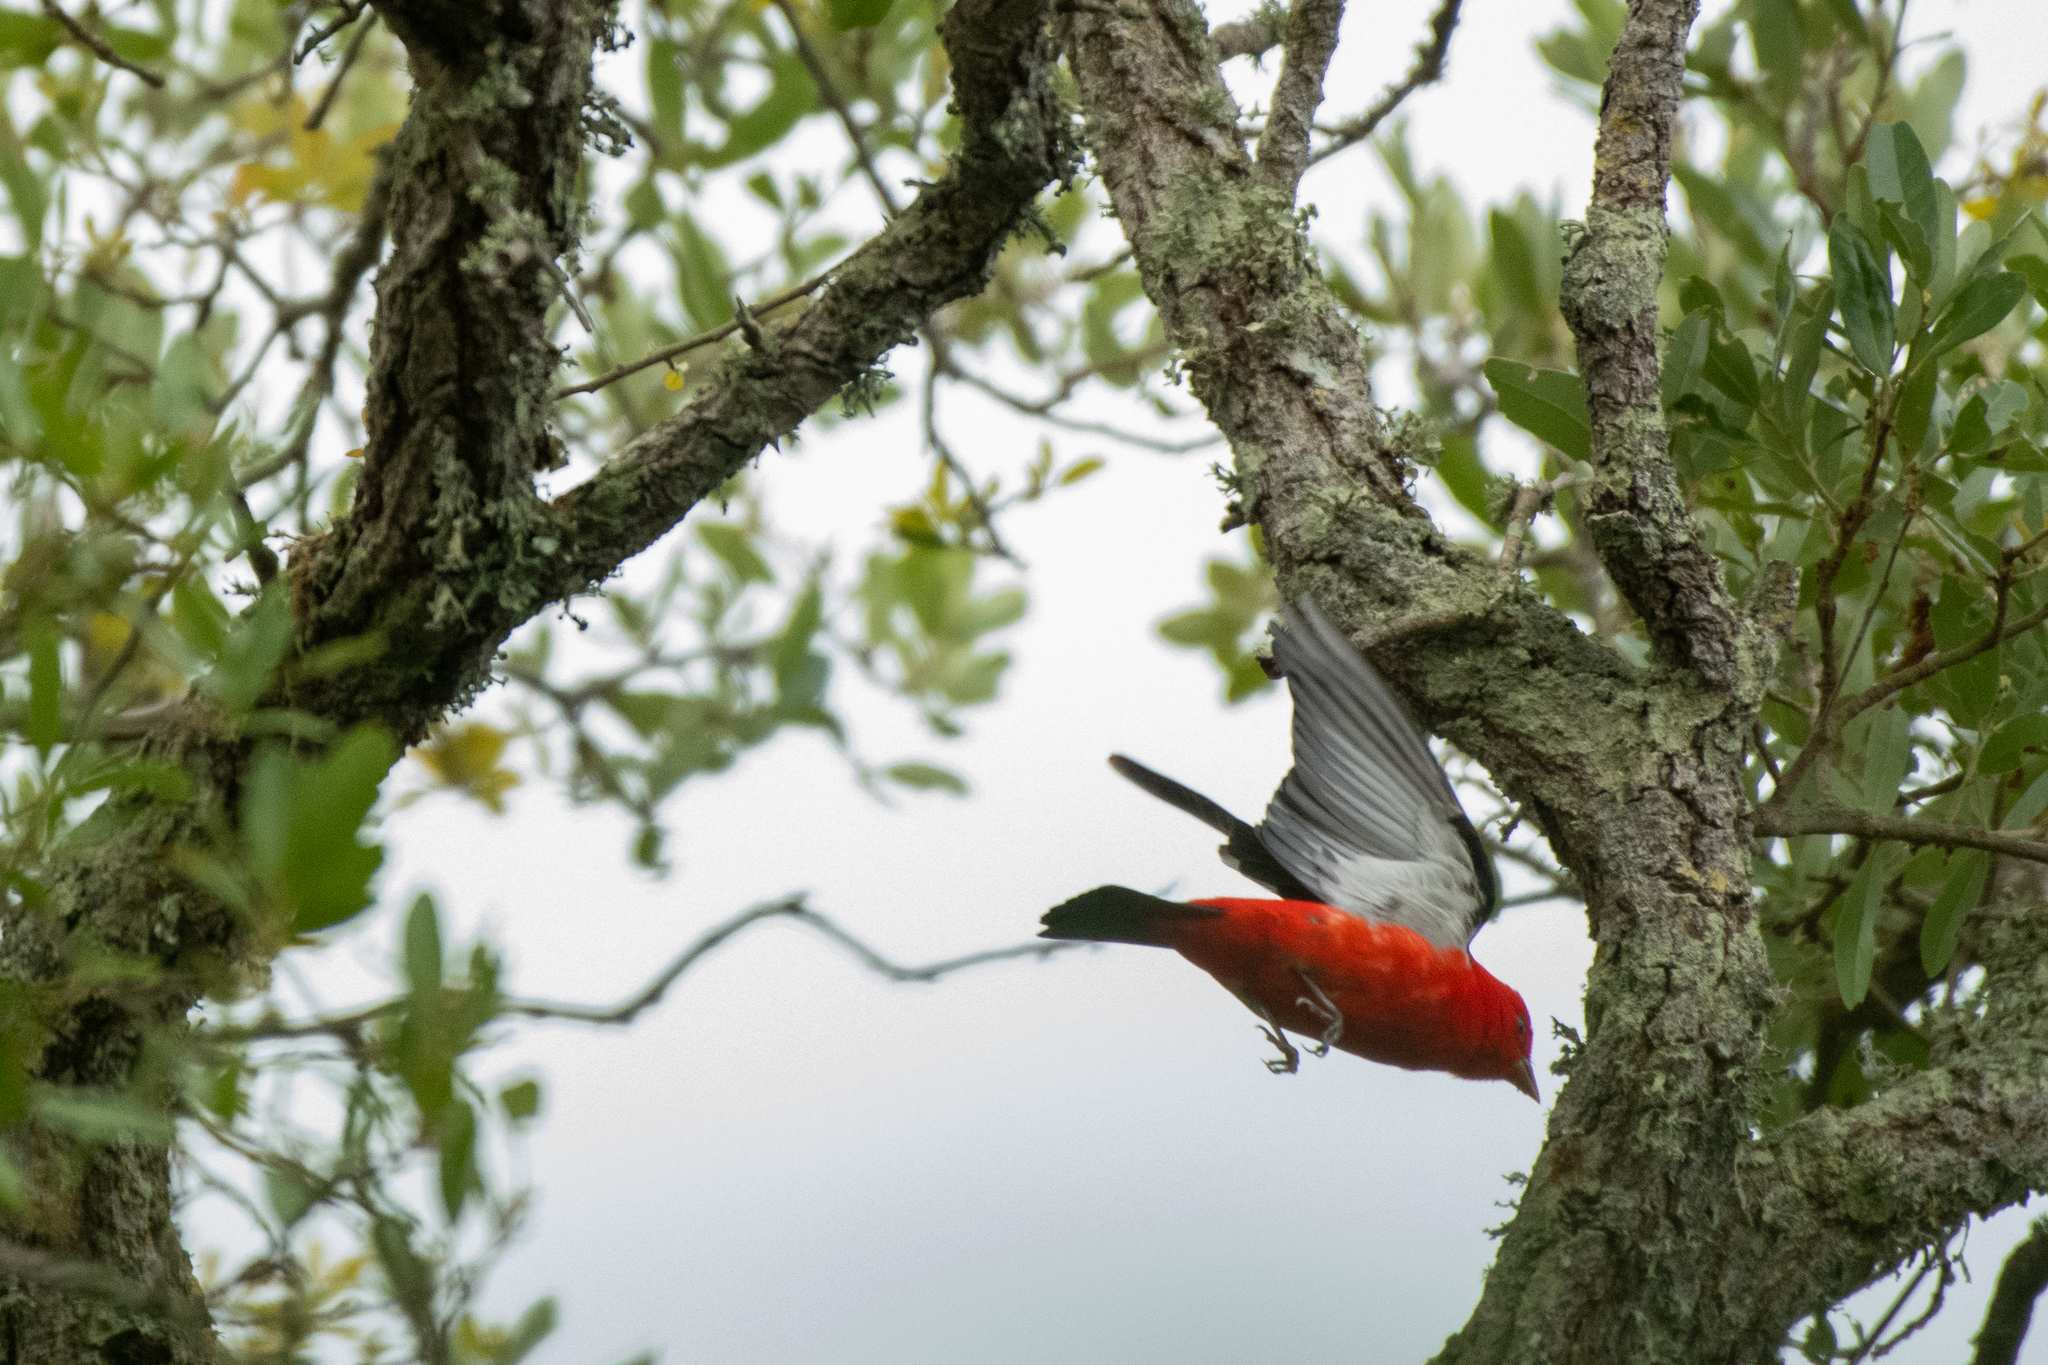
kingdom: Animalia
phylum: Chordata
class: Aves
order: Passeriformes
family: Cardinalidae
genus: Piranga
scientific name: Piranga olivacea
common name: Scarlet tanager
